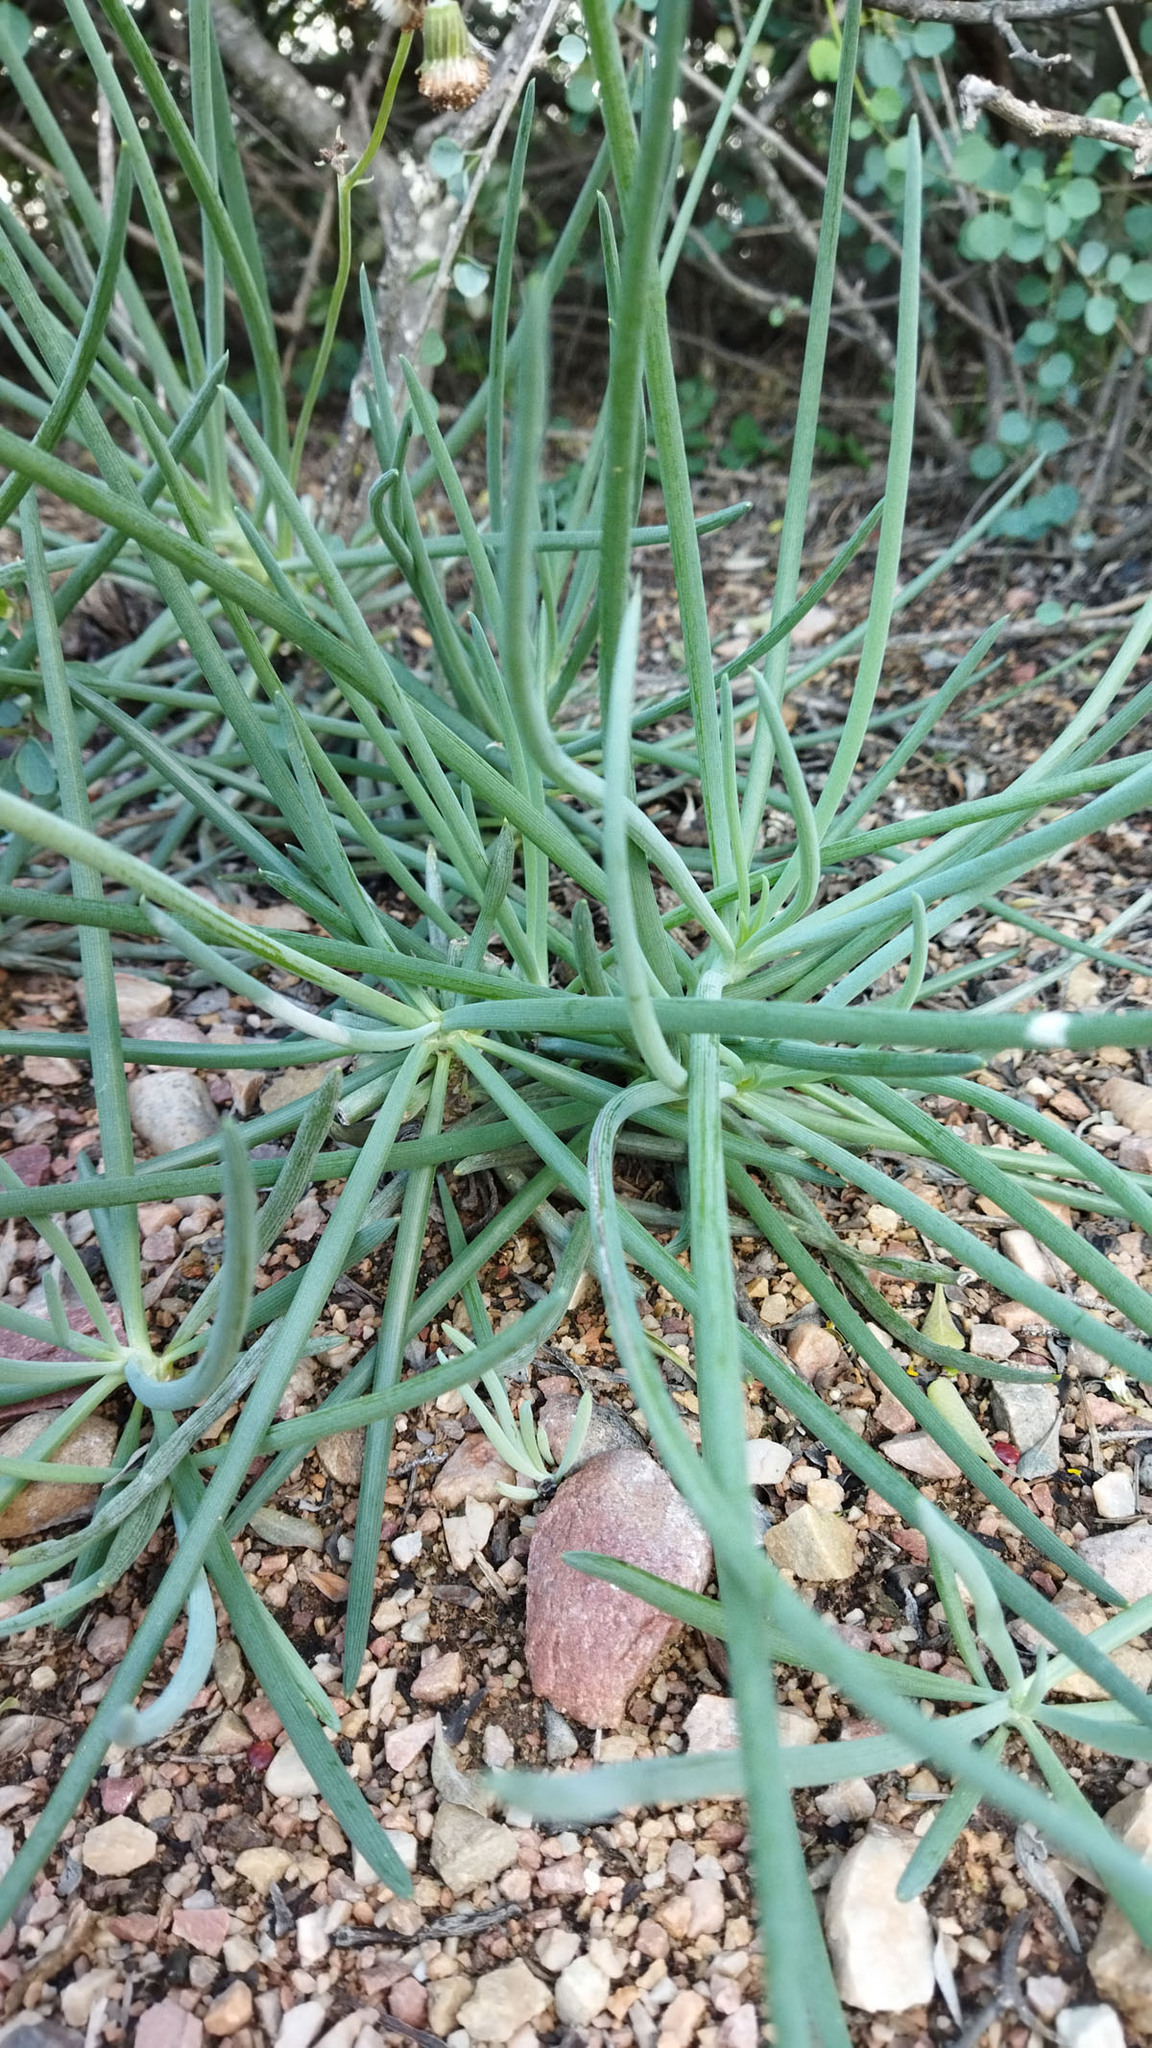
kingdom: Plantae
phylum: Tracheophyta
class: Magnoliopsida
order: Asterales
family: Asteraceae
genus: Curio
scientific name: Curio talinoides
